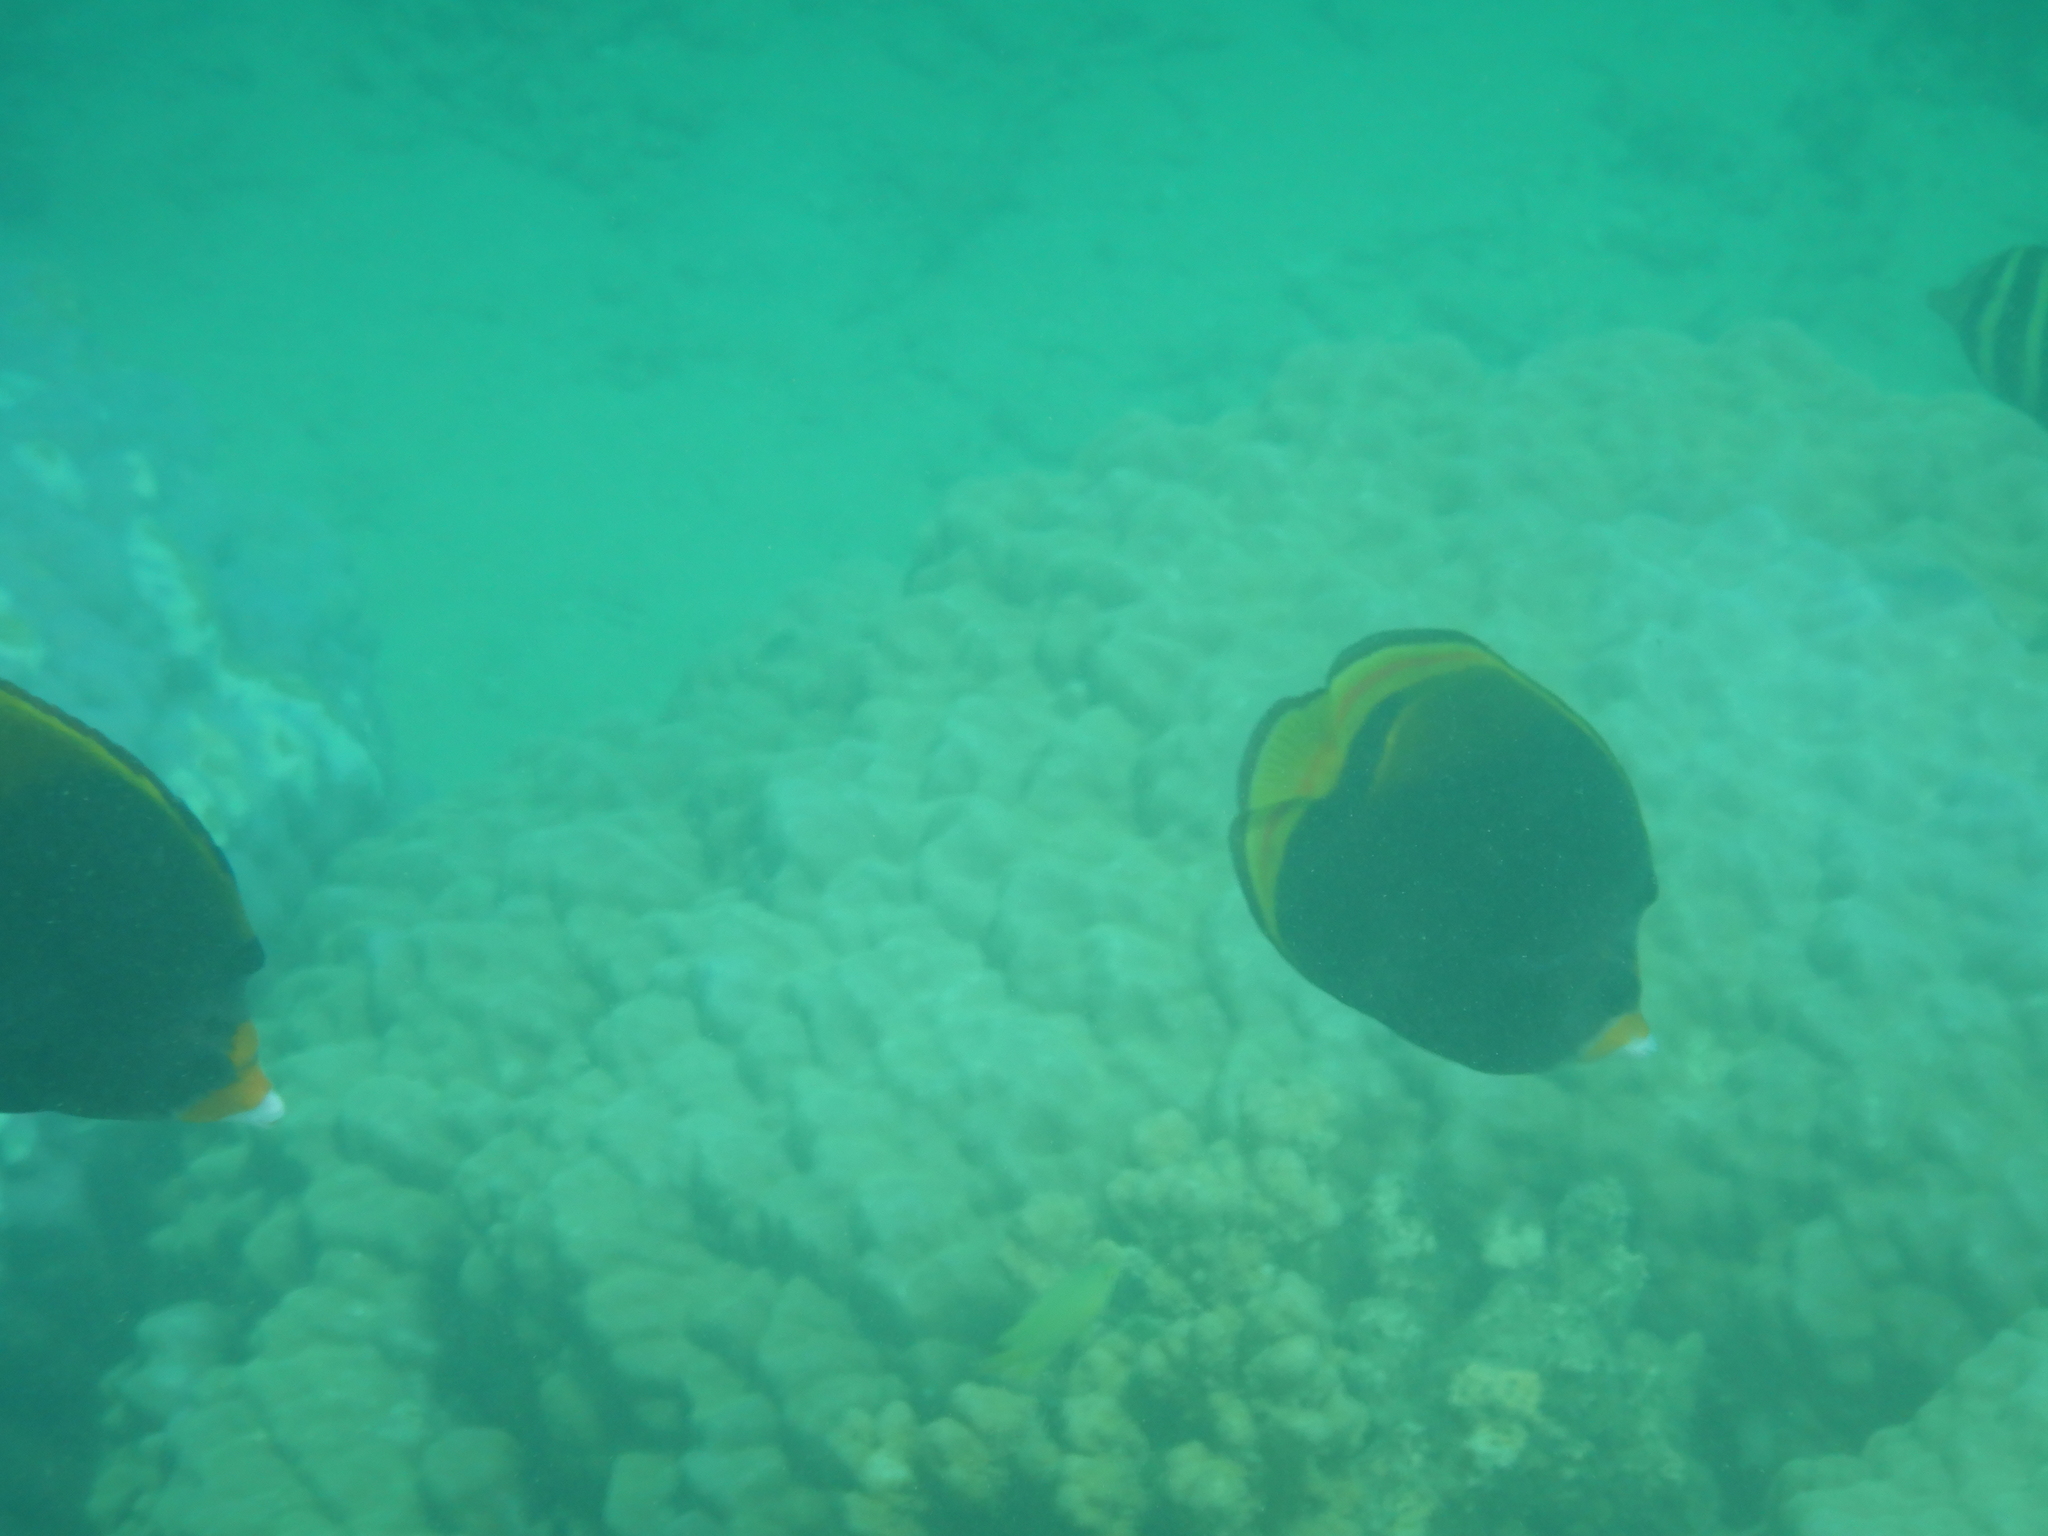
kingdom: Animalia
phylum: Chordata
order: Perciformes
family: Chaetodontidae
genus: Chaetodon
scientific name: Chaetodon flavirostris
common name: Black butterflyfish
